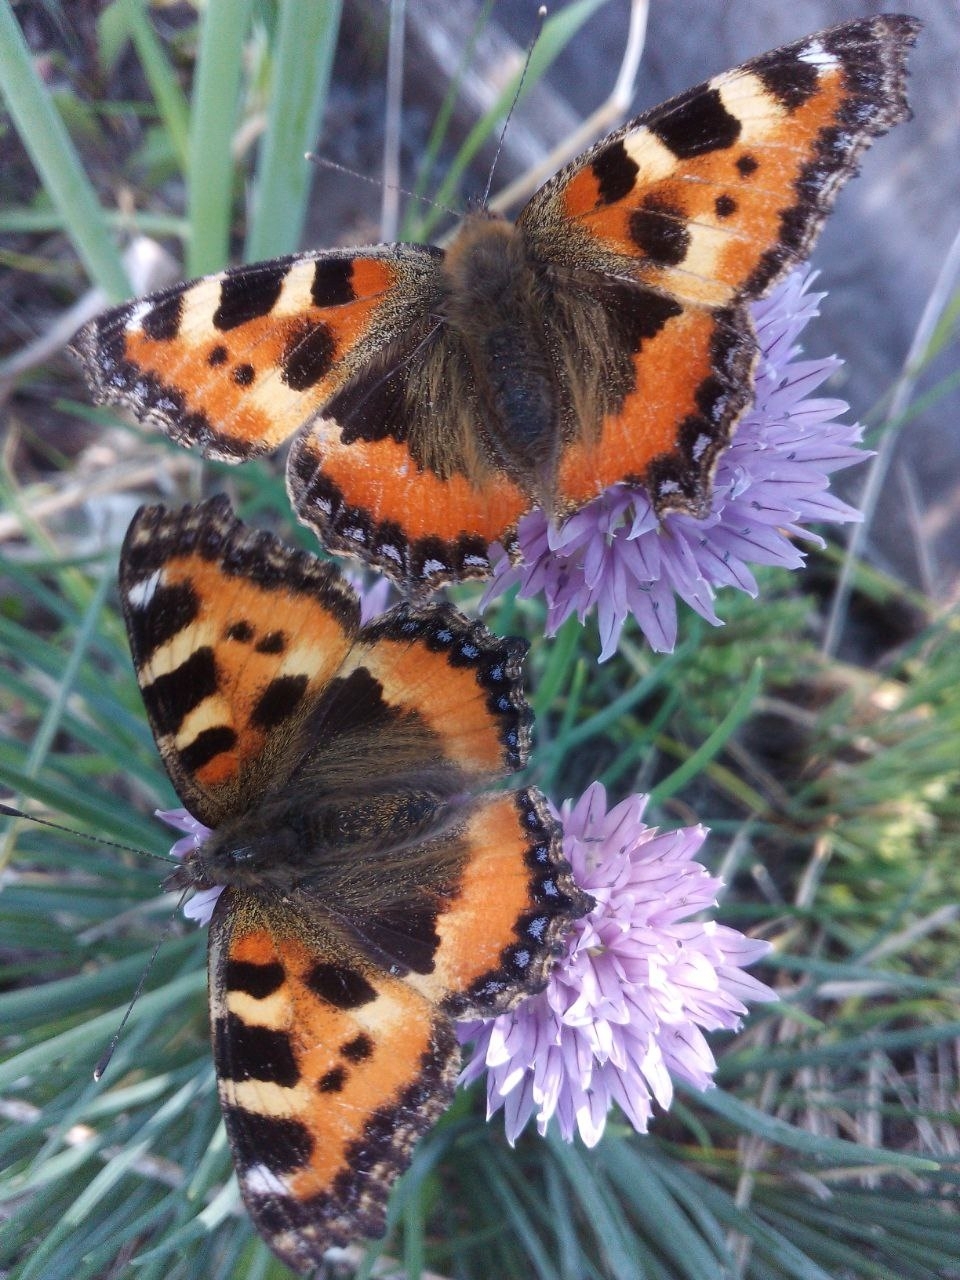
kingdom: Animalia
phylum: Arthropoda
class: Insecta
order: Lepidoptera
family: Nymphalidae
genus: Aglais
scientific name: Aglais urticae
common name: Small tortoiseshell
